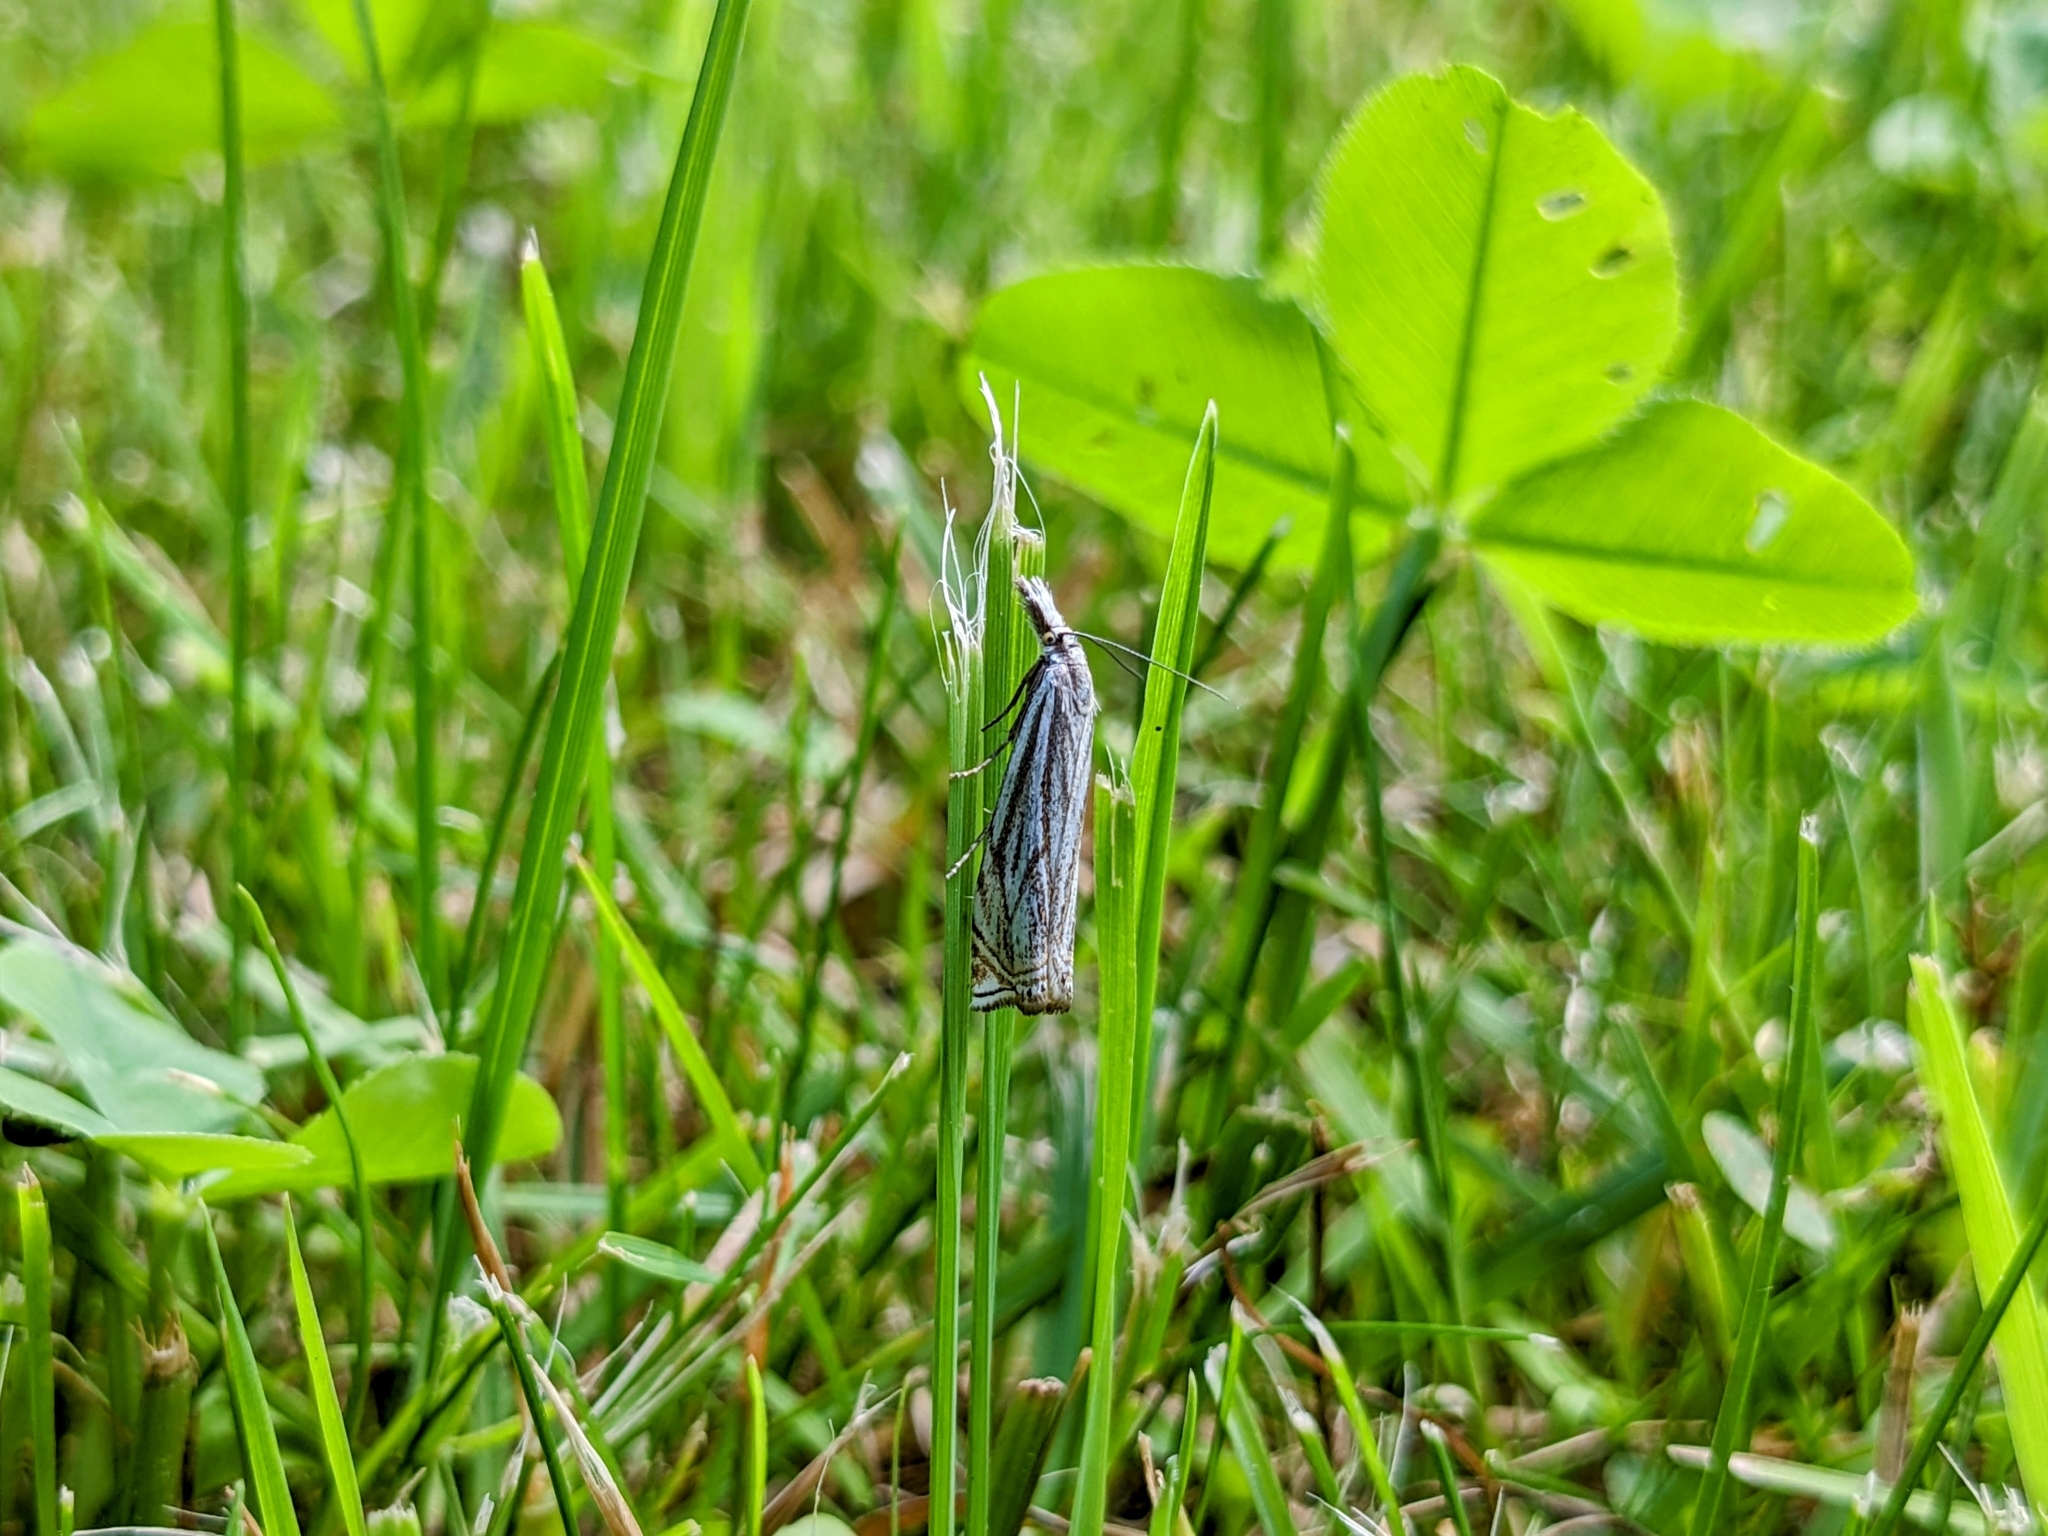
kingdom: Animalia
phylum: Arthropoda
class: Insecta
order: Lepidoptera
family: Crambidae
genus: Crambus
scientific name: Crambus nemorella
